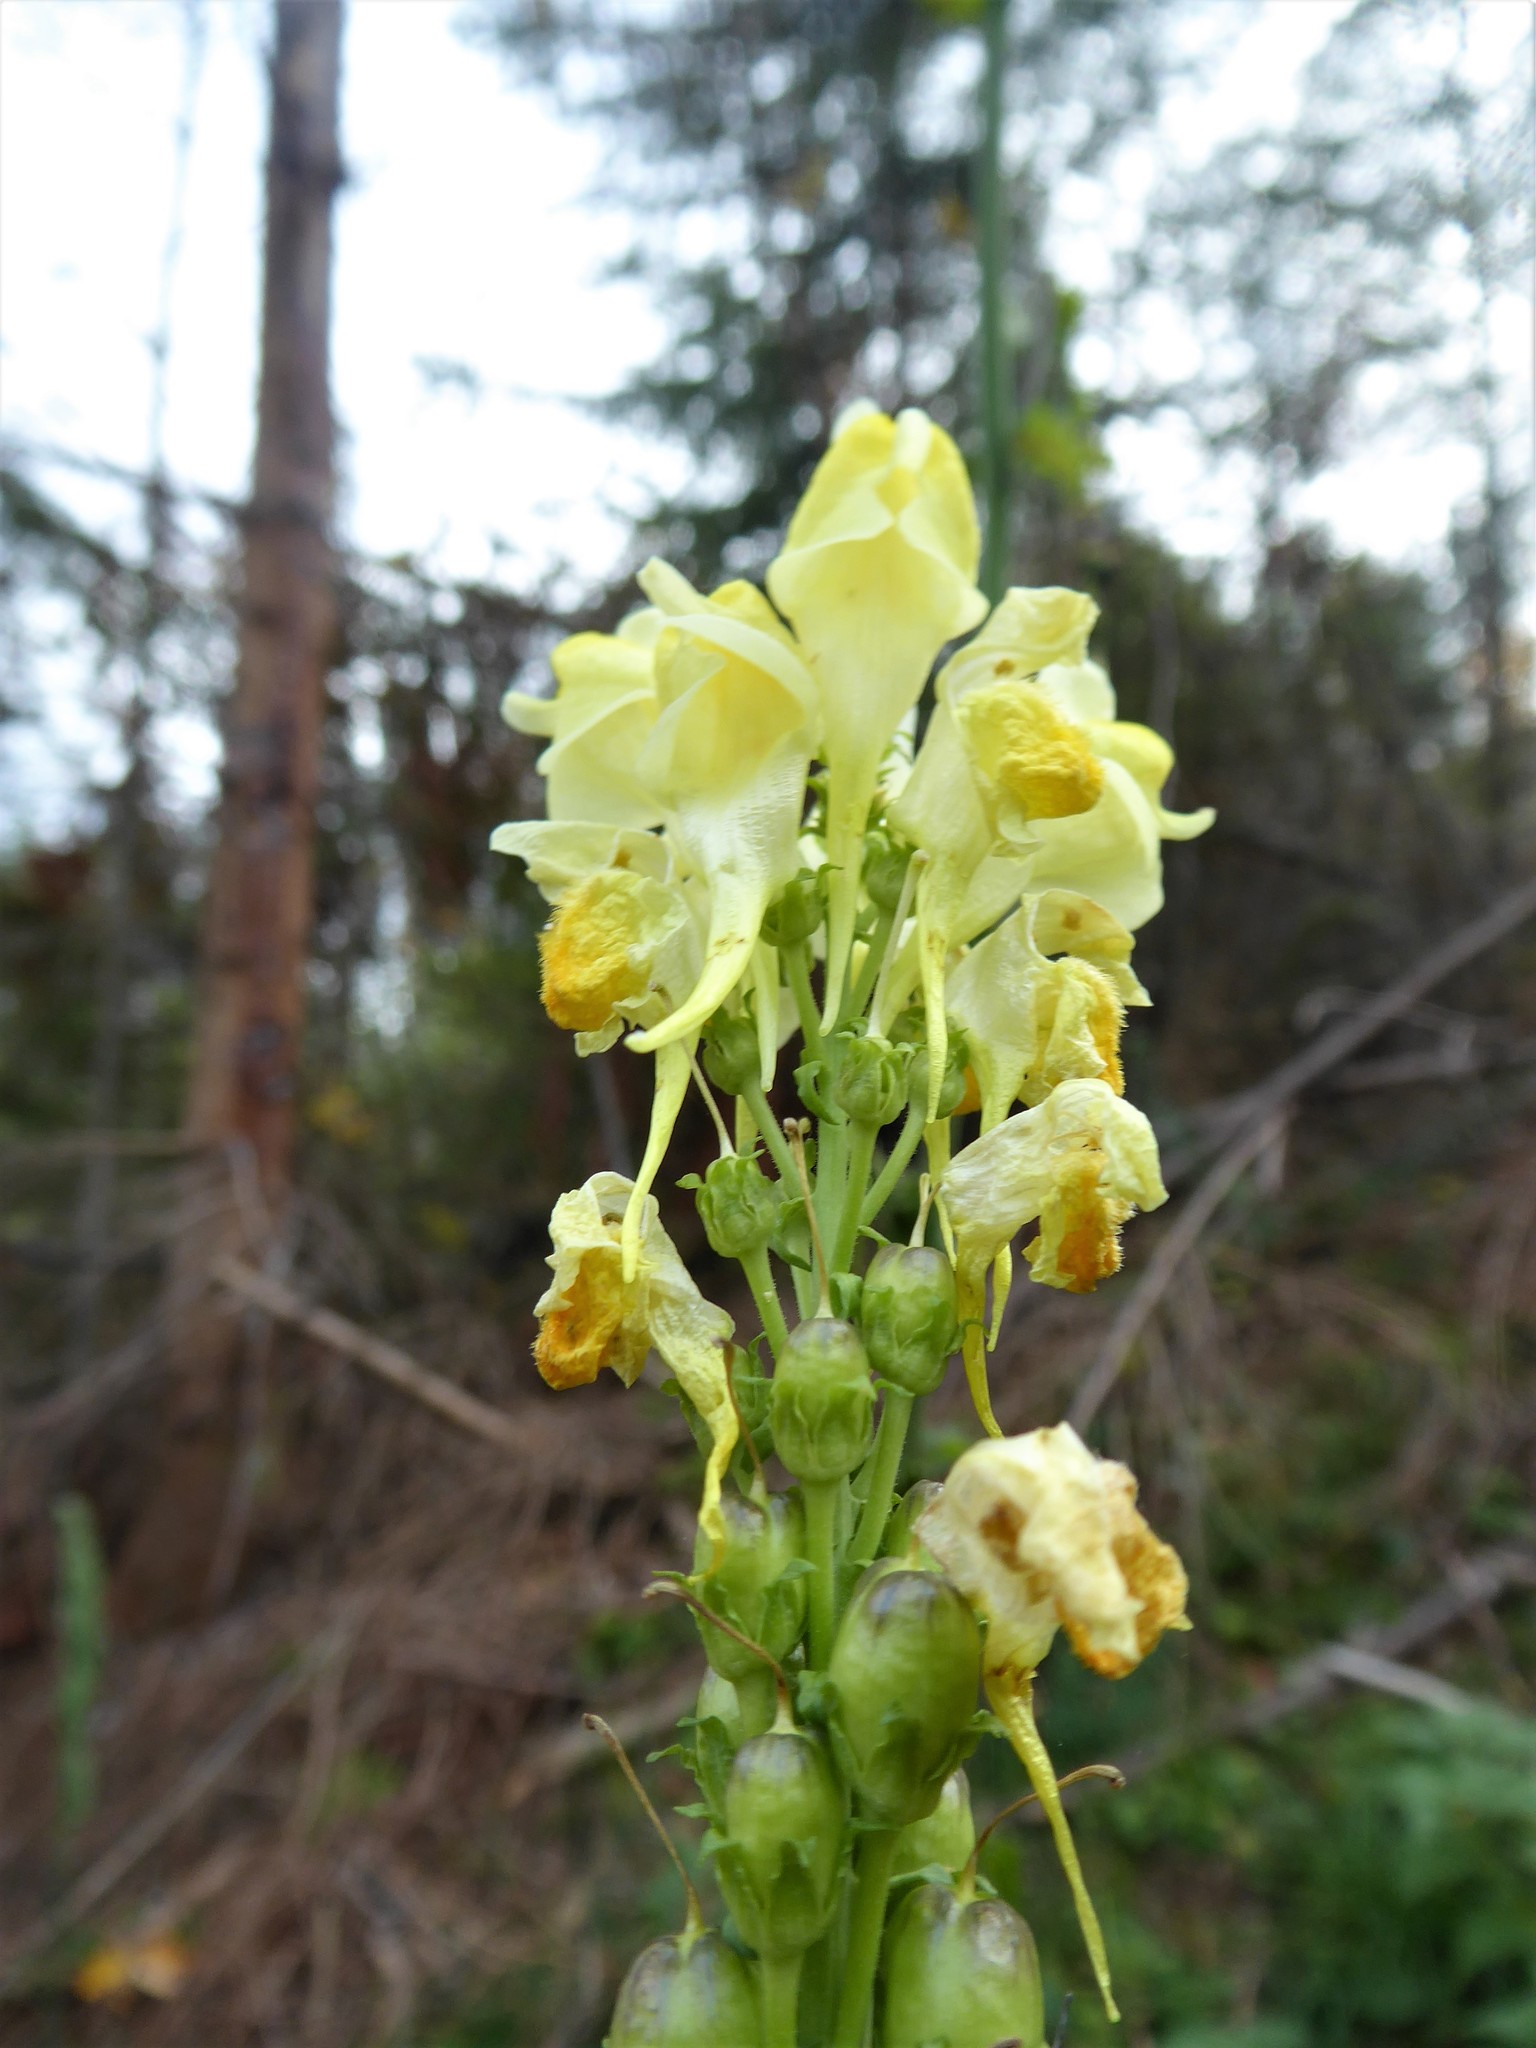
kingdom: Plantae
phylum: Tracheophyta
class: Magnoliopsida
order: Lamiales
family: Plantaginaceae
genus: Linaria
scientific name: Linaria vulgaris
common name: Butter and eggs
